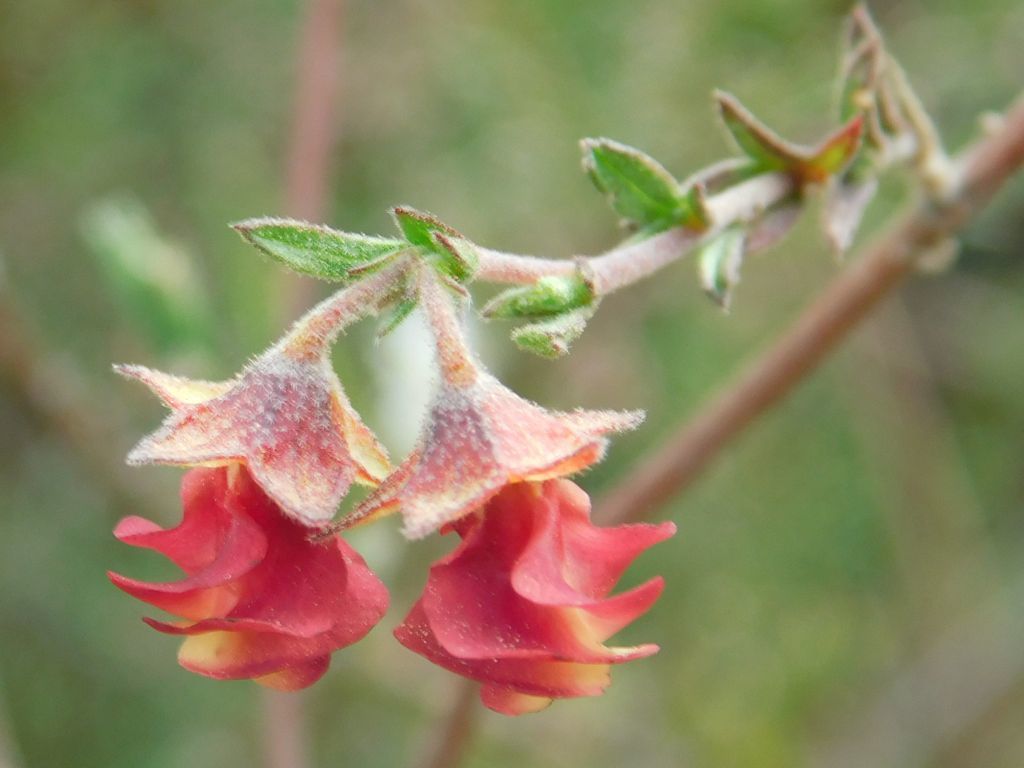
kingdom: Plantae
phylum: Tracheophyta
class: Magnoliopsida
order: Malvales
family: Malvaceae
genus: Hermannia
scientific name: Hermannia flammula
